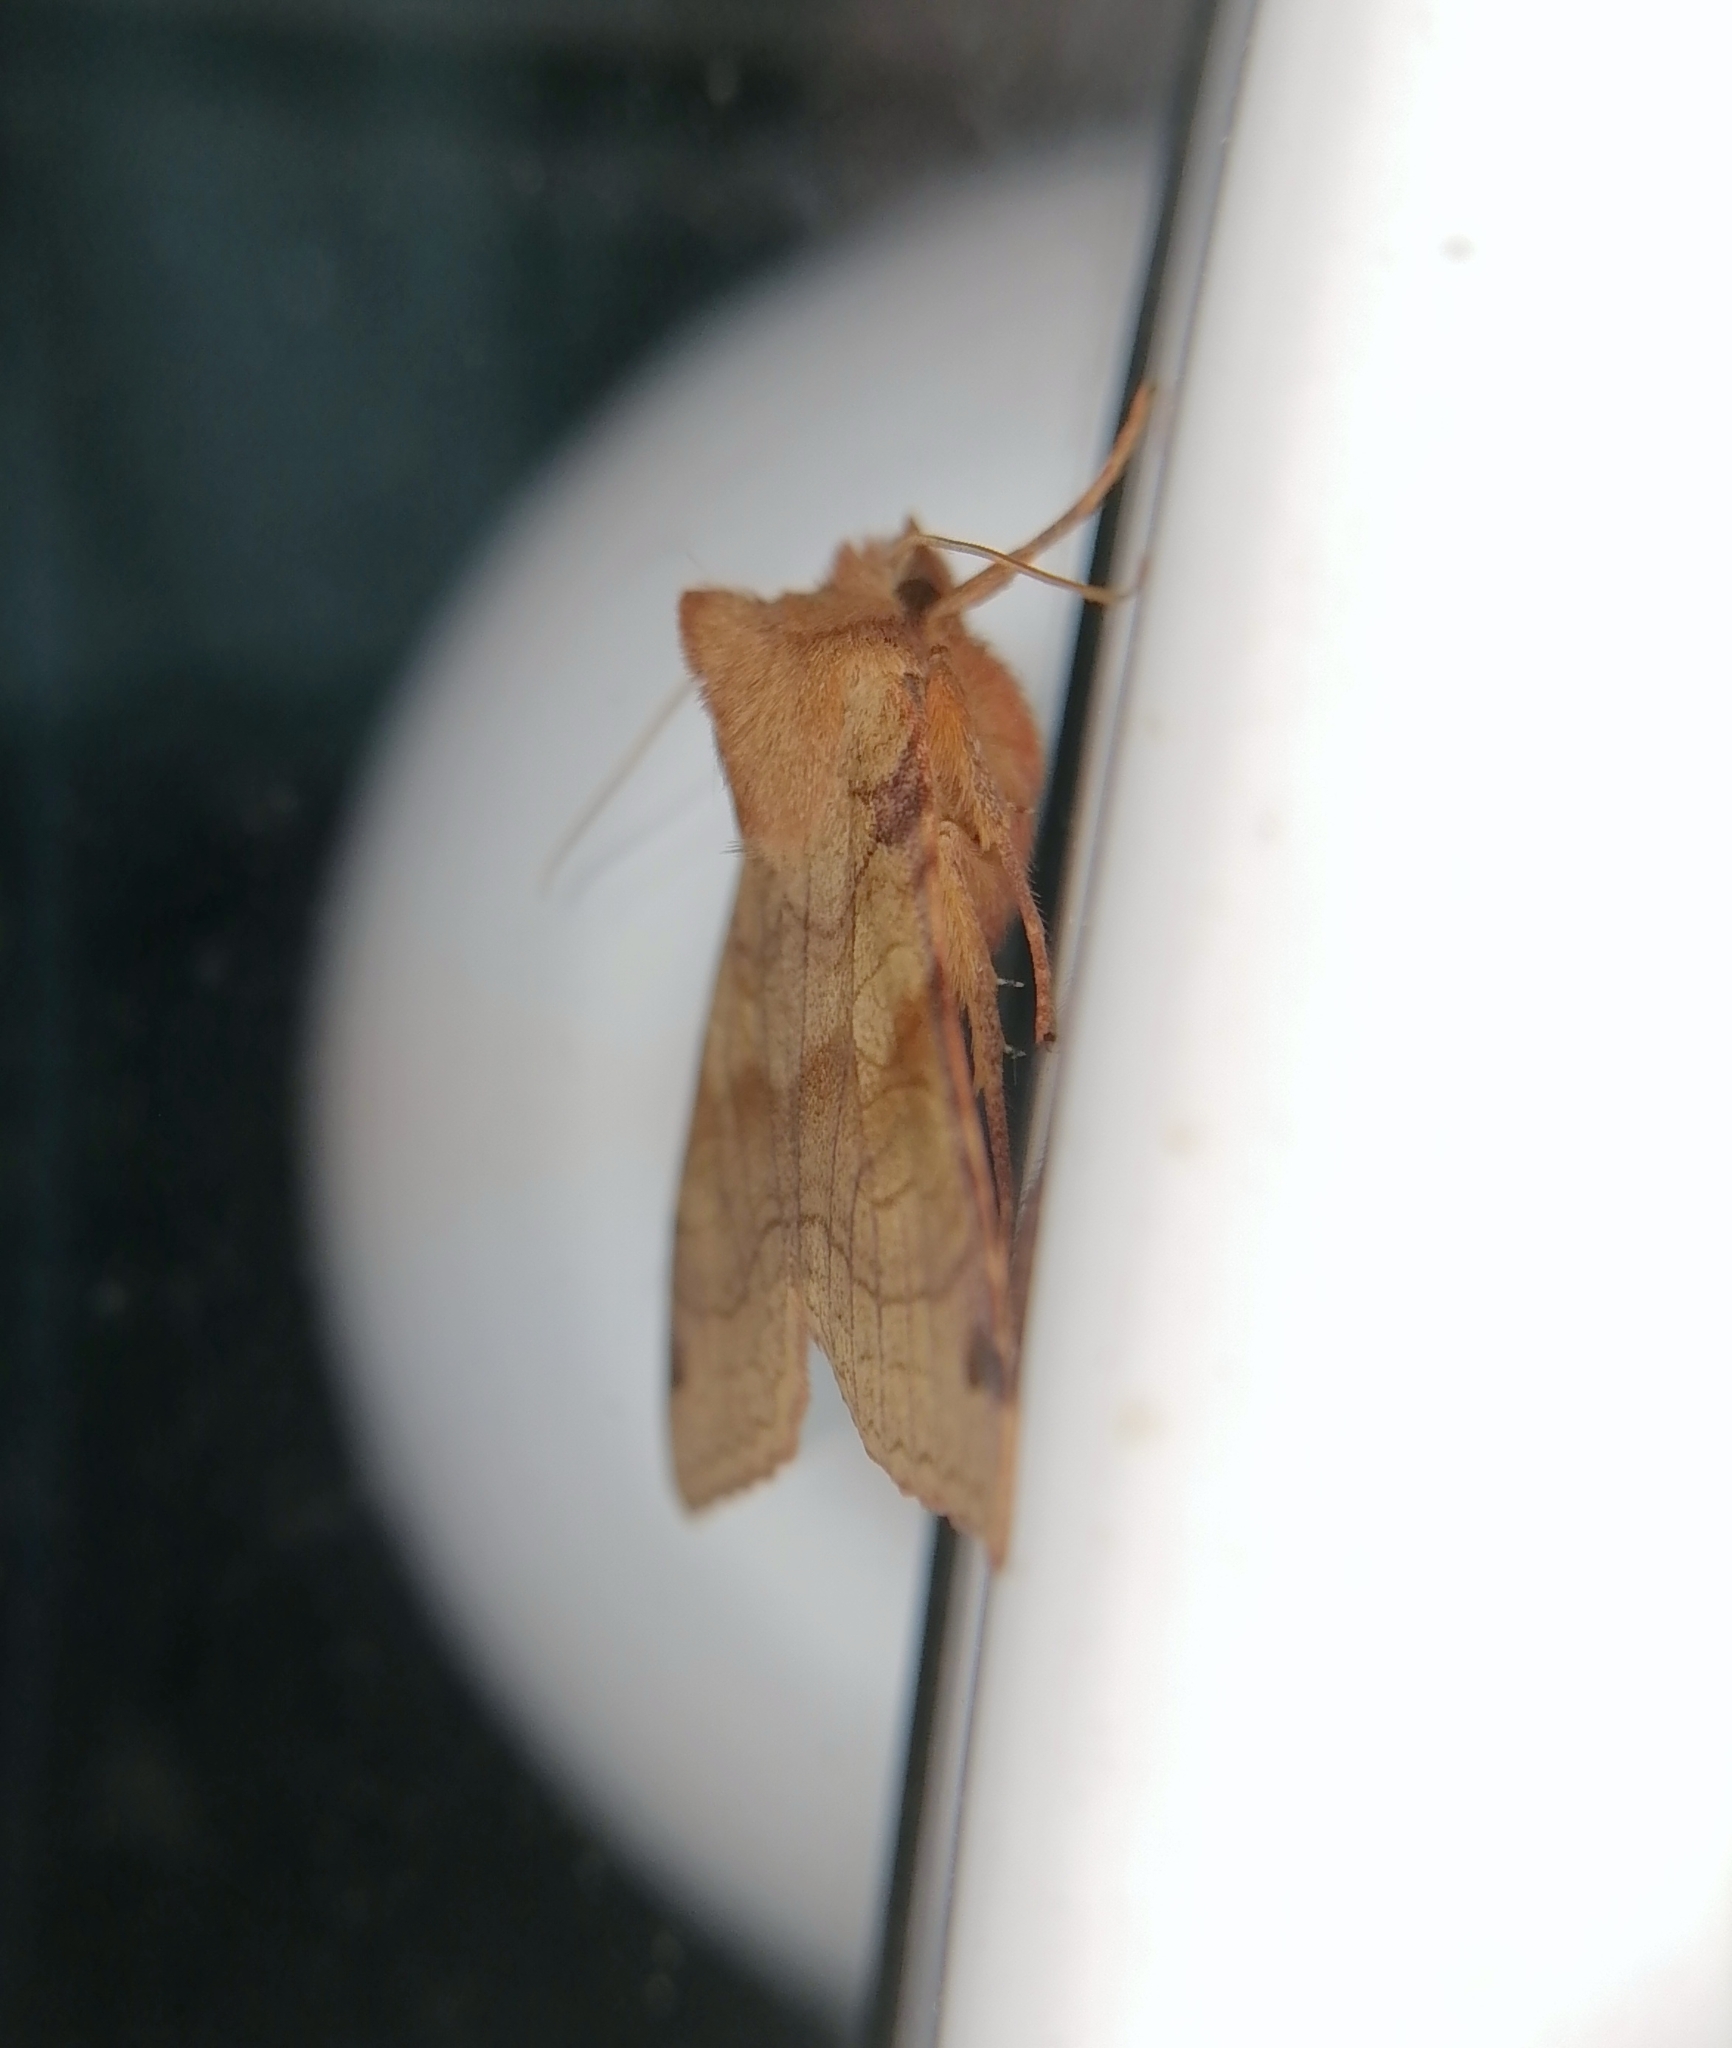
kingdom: Animalia
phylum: Arthropoda
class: Insecta
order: Lepidoptera
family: Noctuidae
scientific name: Noctuidae
